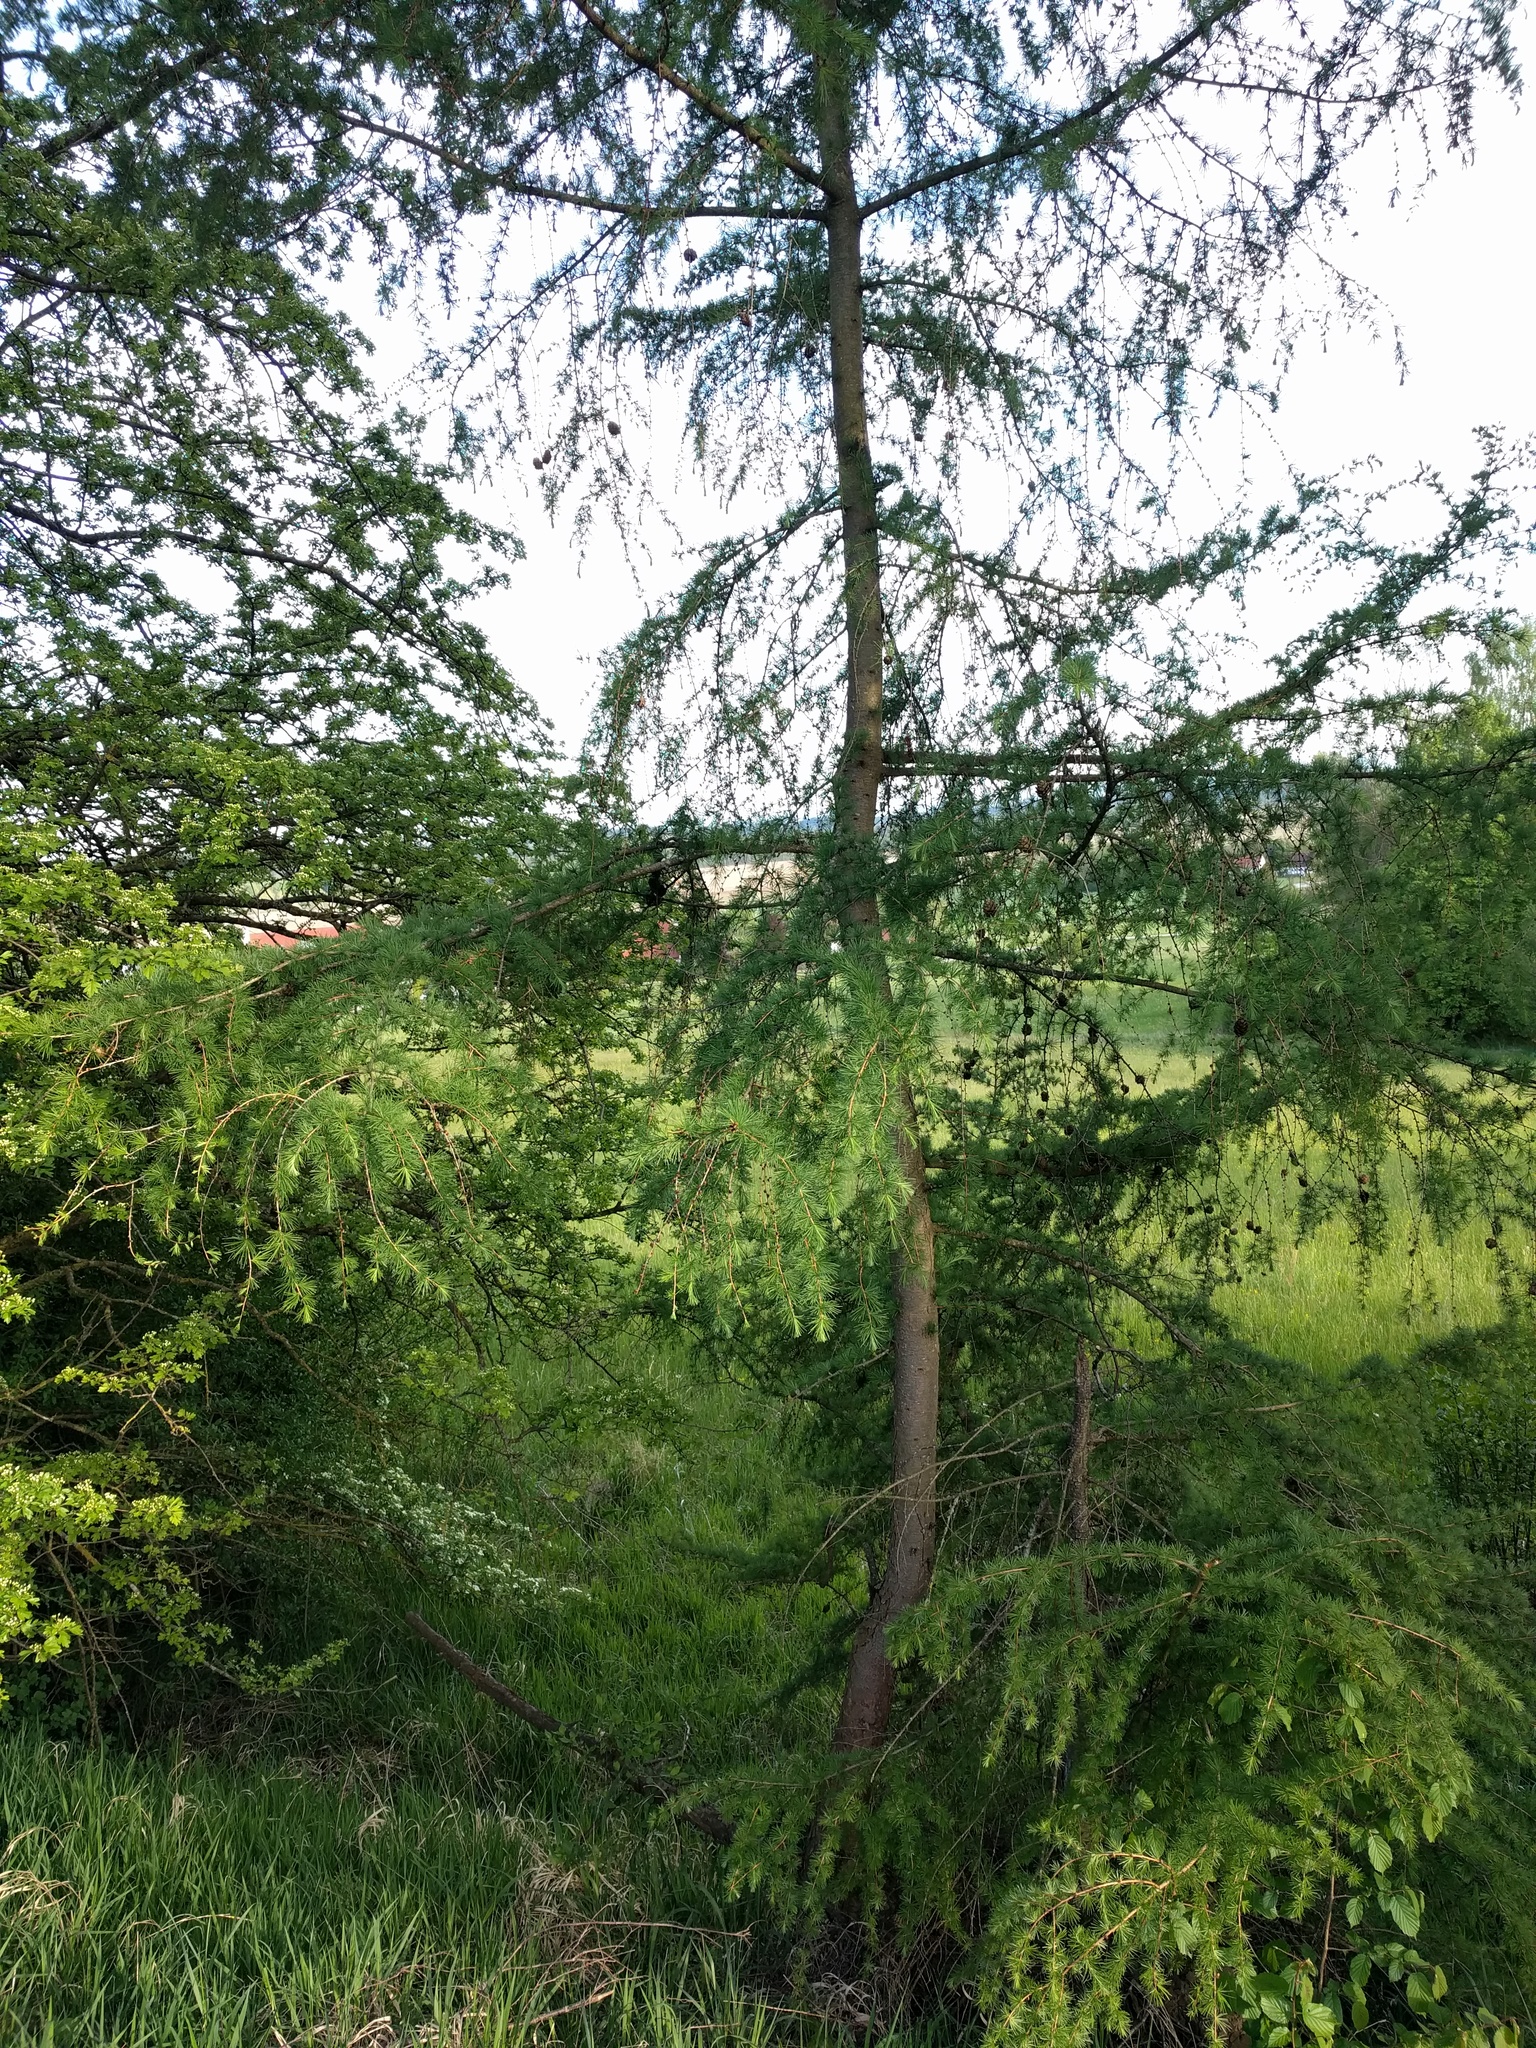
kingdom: Plantae
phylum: Tracheophyta
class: Pinopsida
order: Pinales
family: Pinaceae
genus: Larix
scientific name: Larix decidua
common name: European larch
